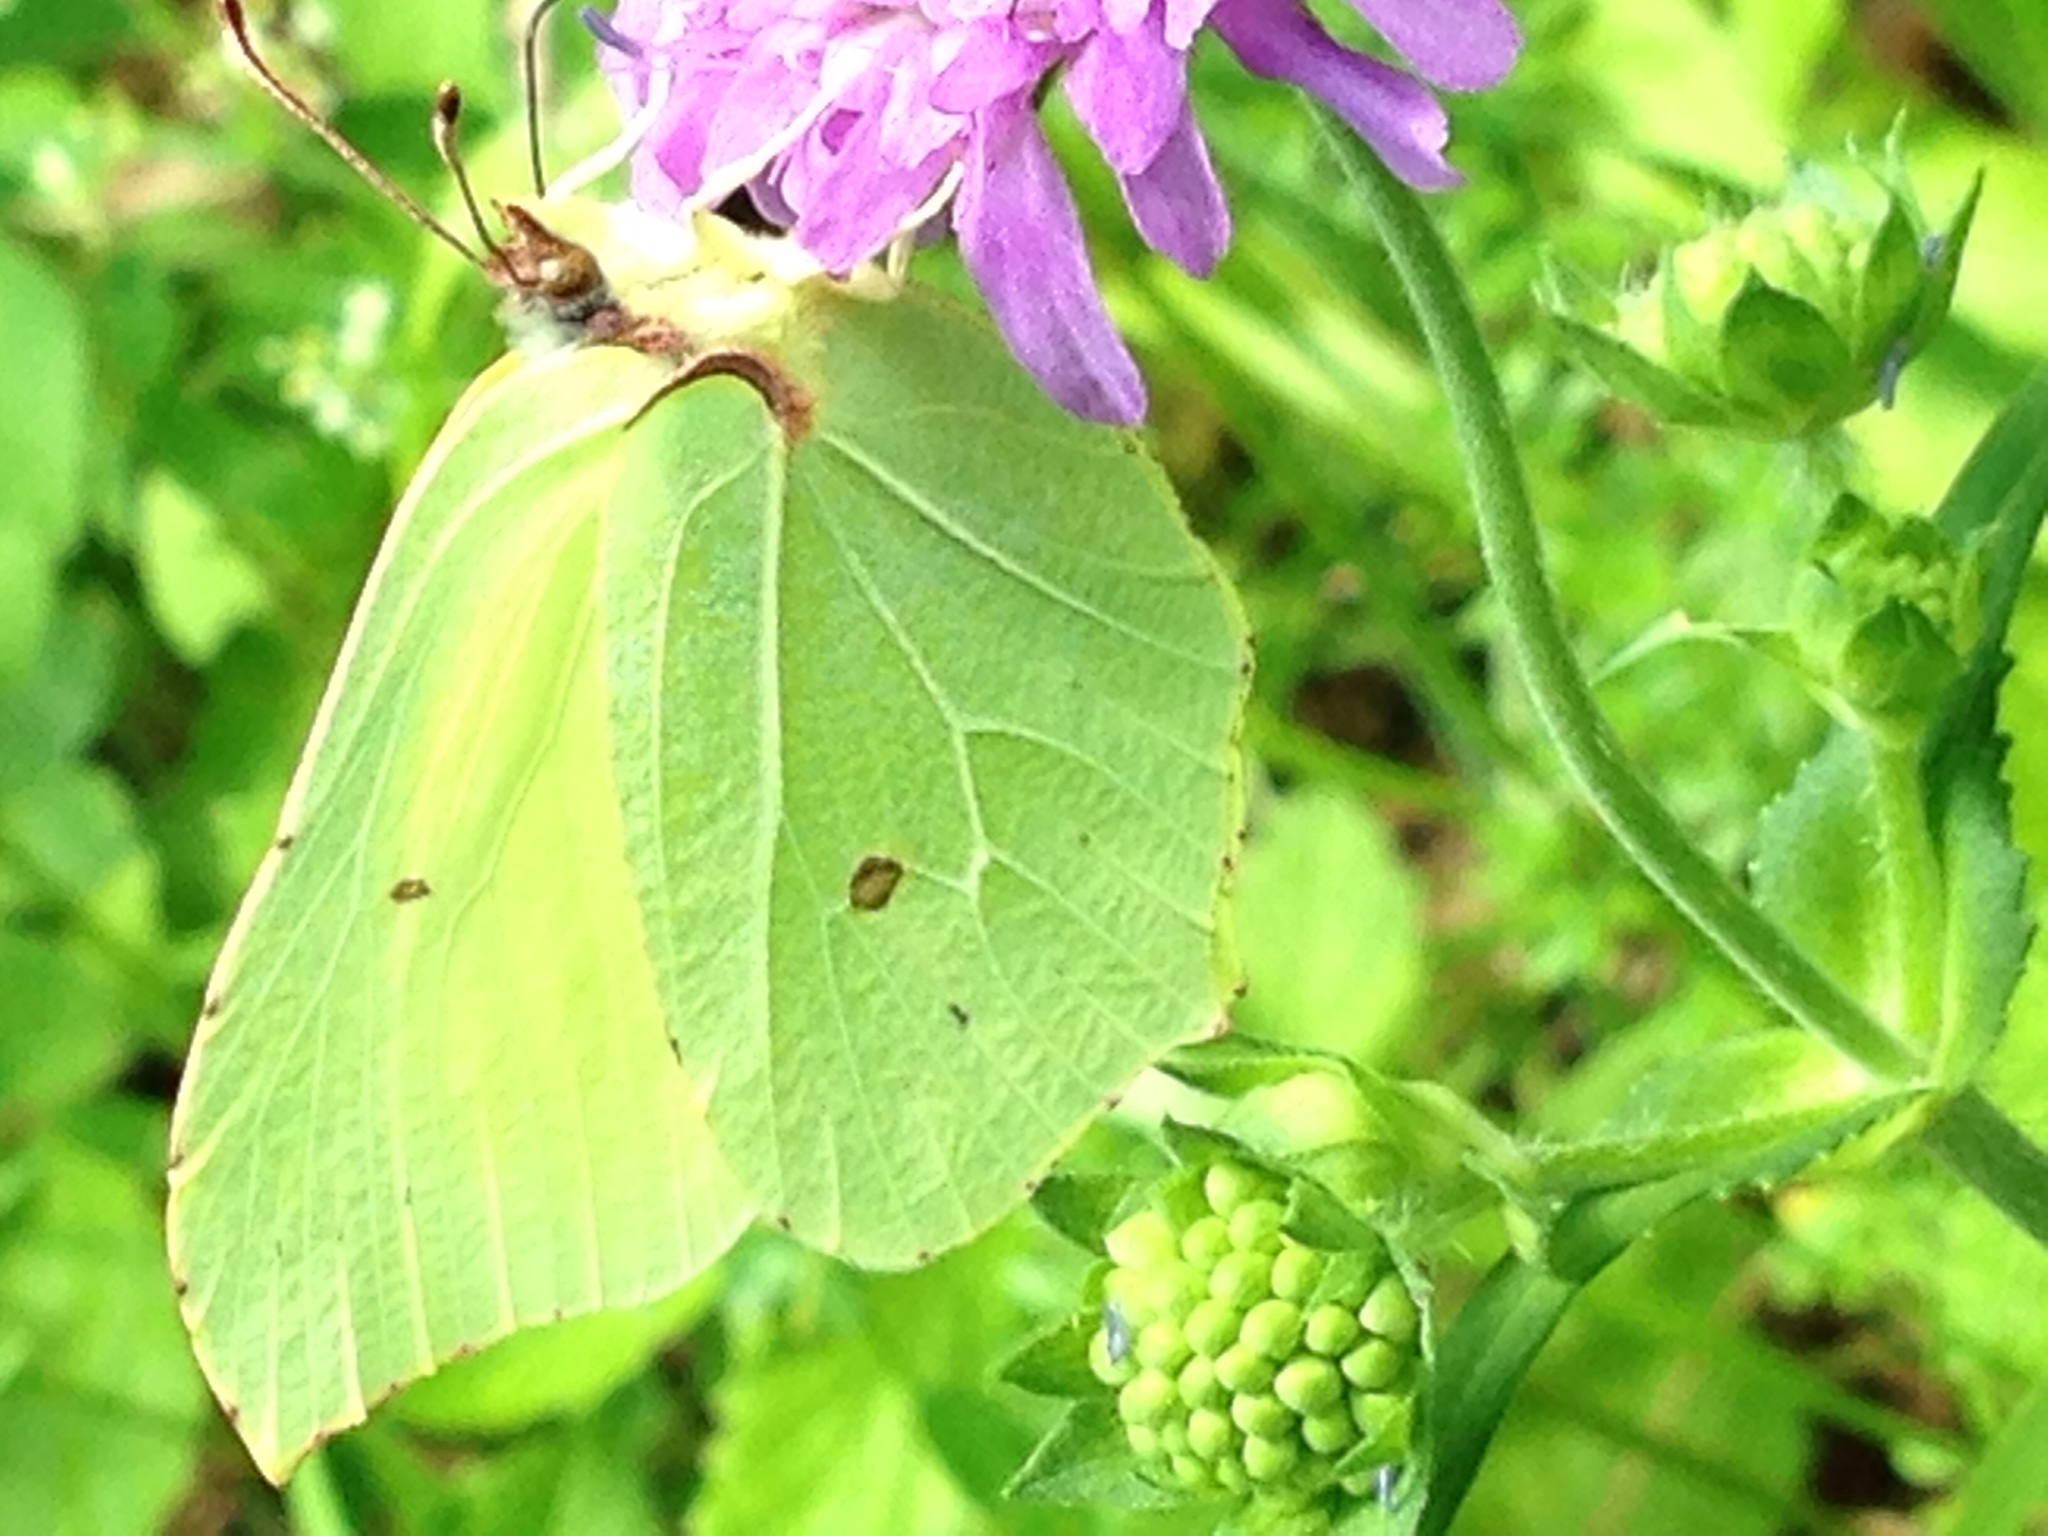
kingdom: Animalia
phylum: Arthropoda
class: Insecta
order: Lepidoptera
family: Pieridae
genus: Gonepteryx
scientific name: Gonepteryx rhamni
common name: Brimstone
